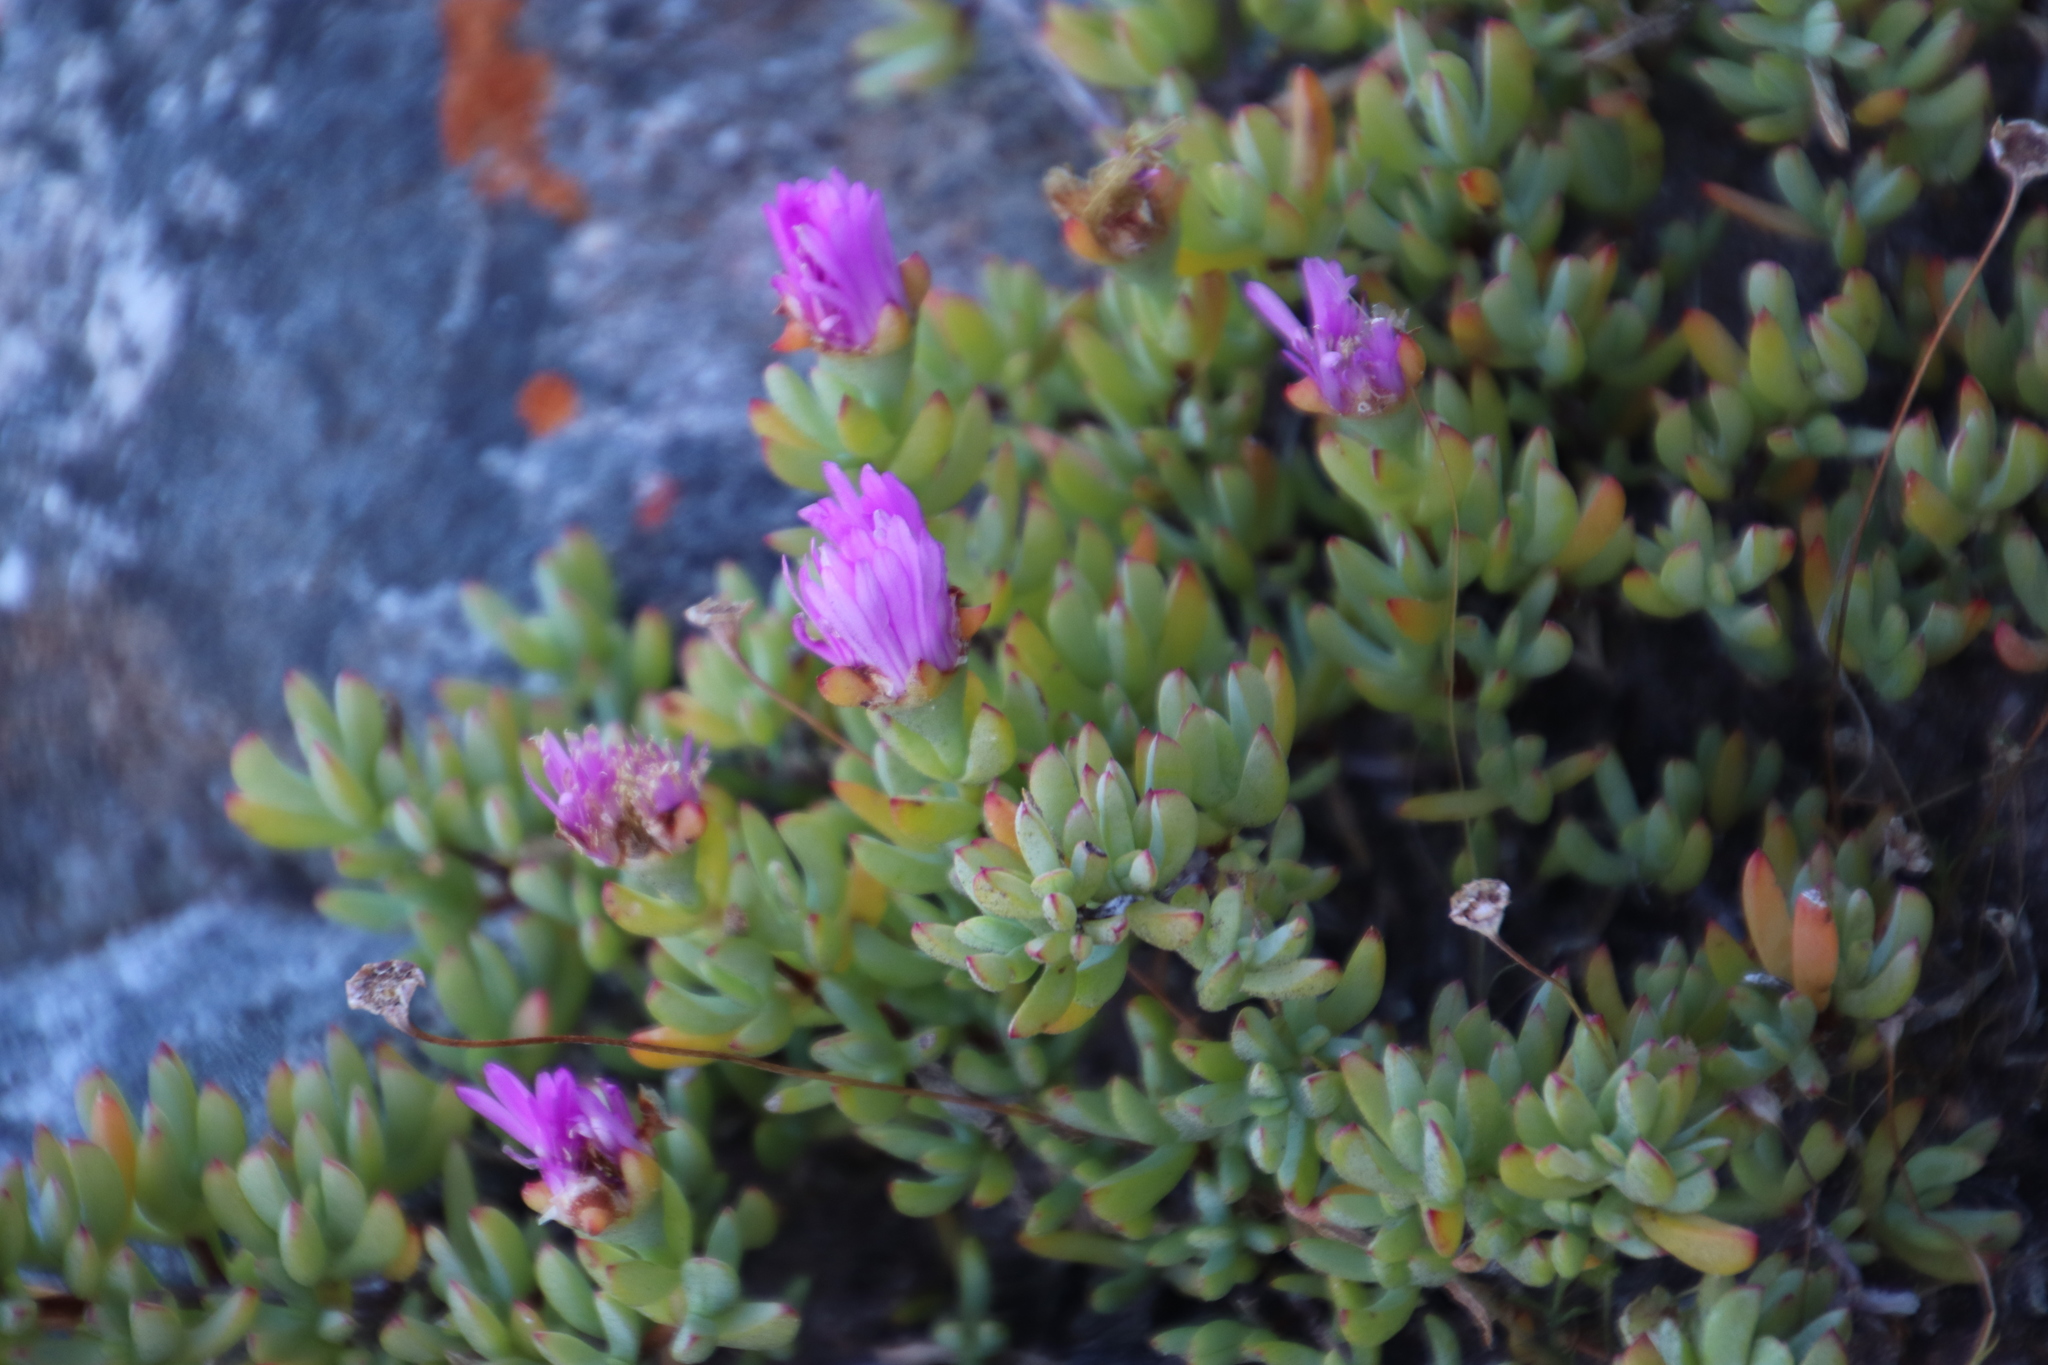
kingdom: Plantae
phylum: Tracheophyta
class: Magnoliopsida
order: Caryophyllales
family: Aizoaceae
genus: Oscularia
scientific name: Oscularia falciformis
